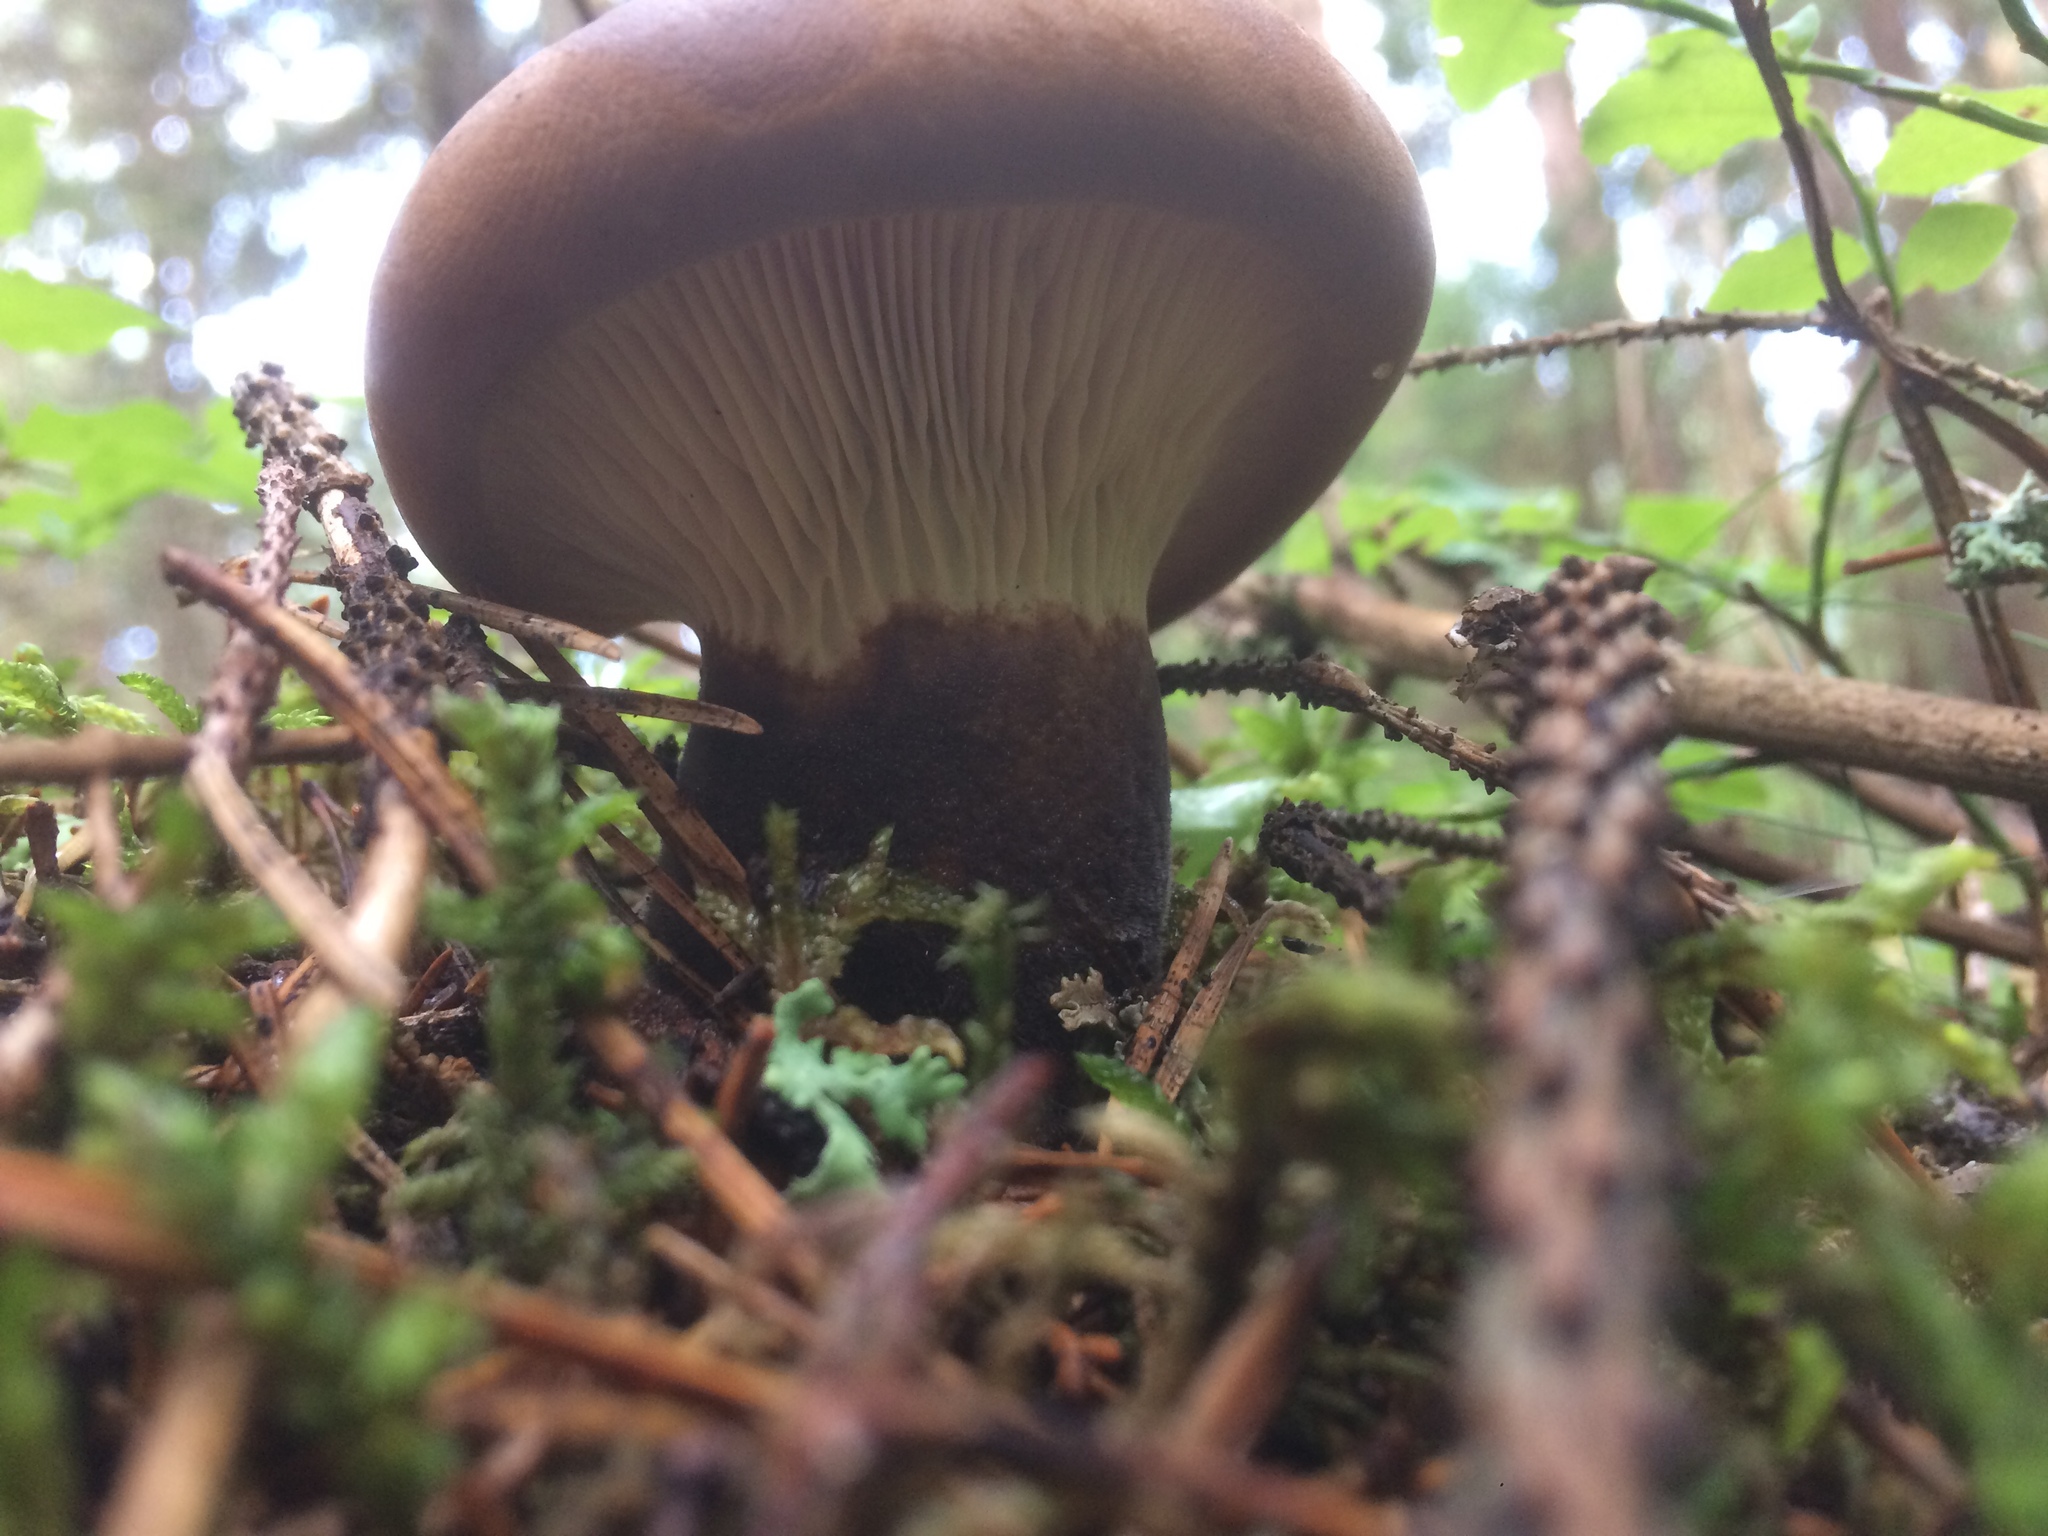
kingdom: Fungi
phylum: Basidiomycota
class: Agaricomycetes
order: Boletales
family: Tapinellaceae
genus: Tapinella
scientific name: Tapinella atrotomentosa
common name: Velvet rollrim
